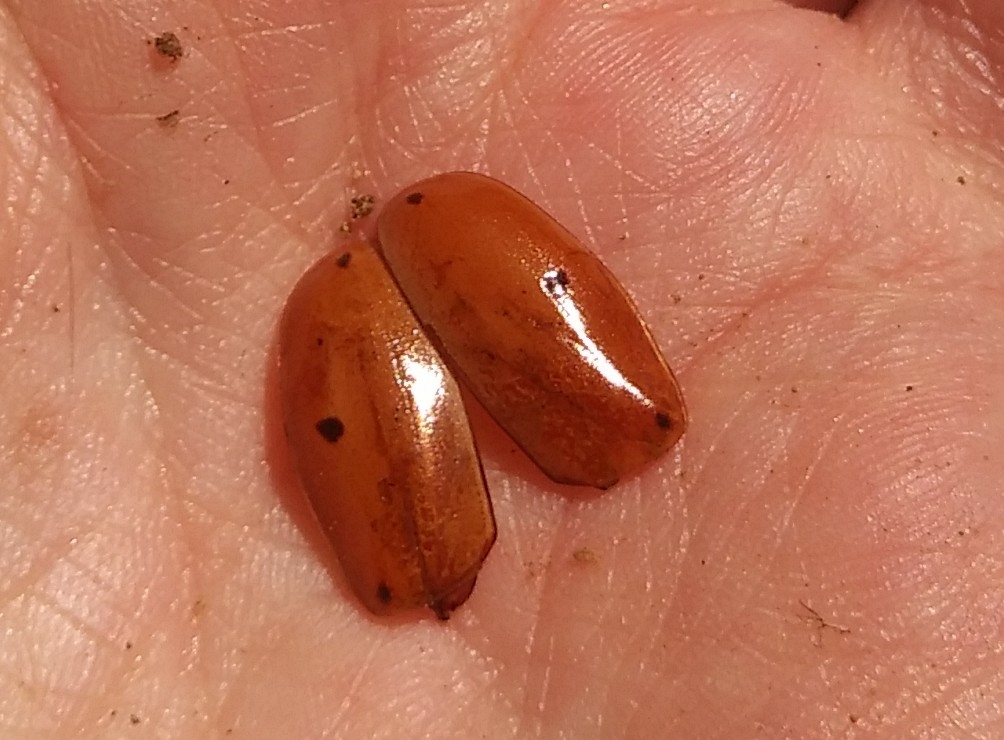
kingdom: Animalia
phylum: Arthropoda
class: Insecta
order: Coleoptera
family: Scarabaeidae
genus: Pelidnota
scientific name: Pelidnota punctata
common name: Grapevine beetle
